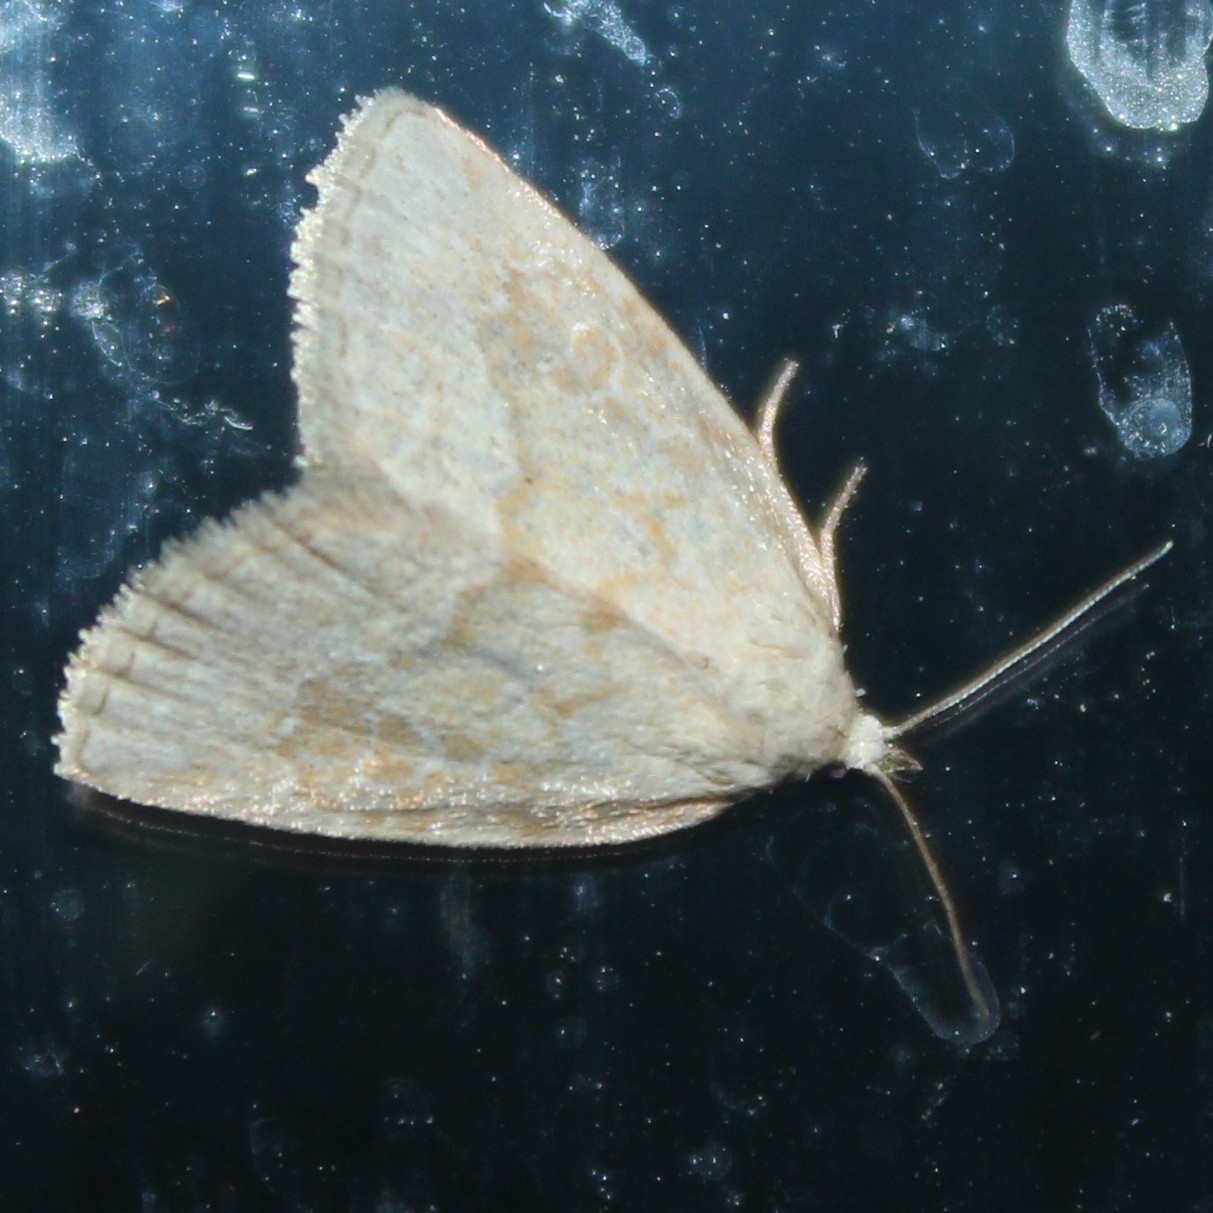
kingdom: Animalia
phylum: Arthropoda
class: Insecta
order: Lepidoptera
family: Noctuidae
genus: Protodeltote
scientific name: Protodeltote albidula
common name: Pale glyph
